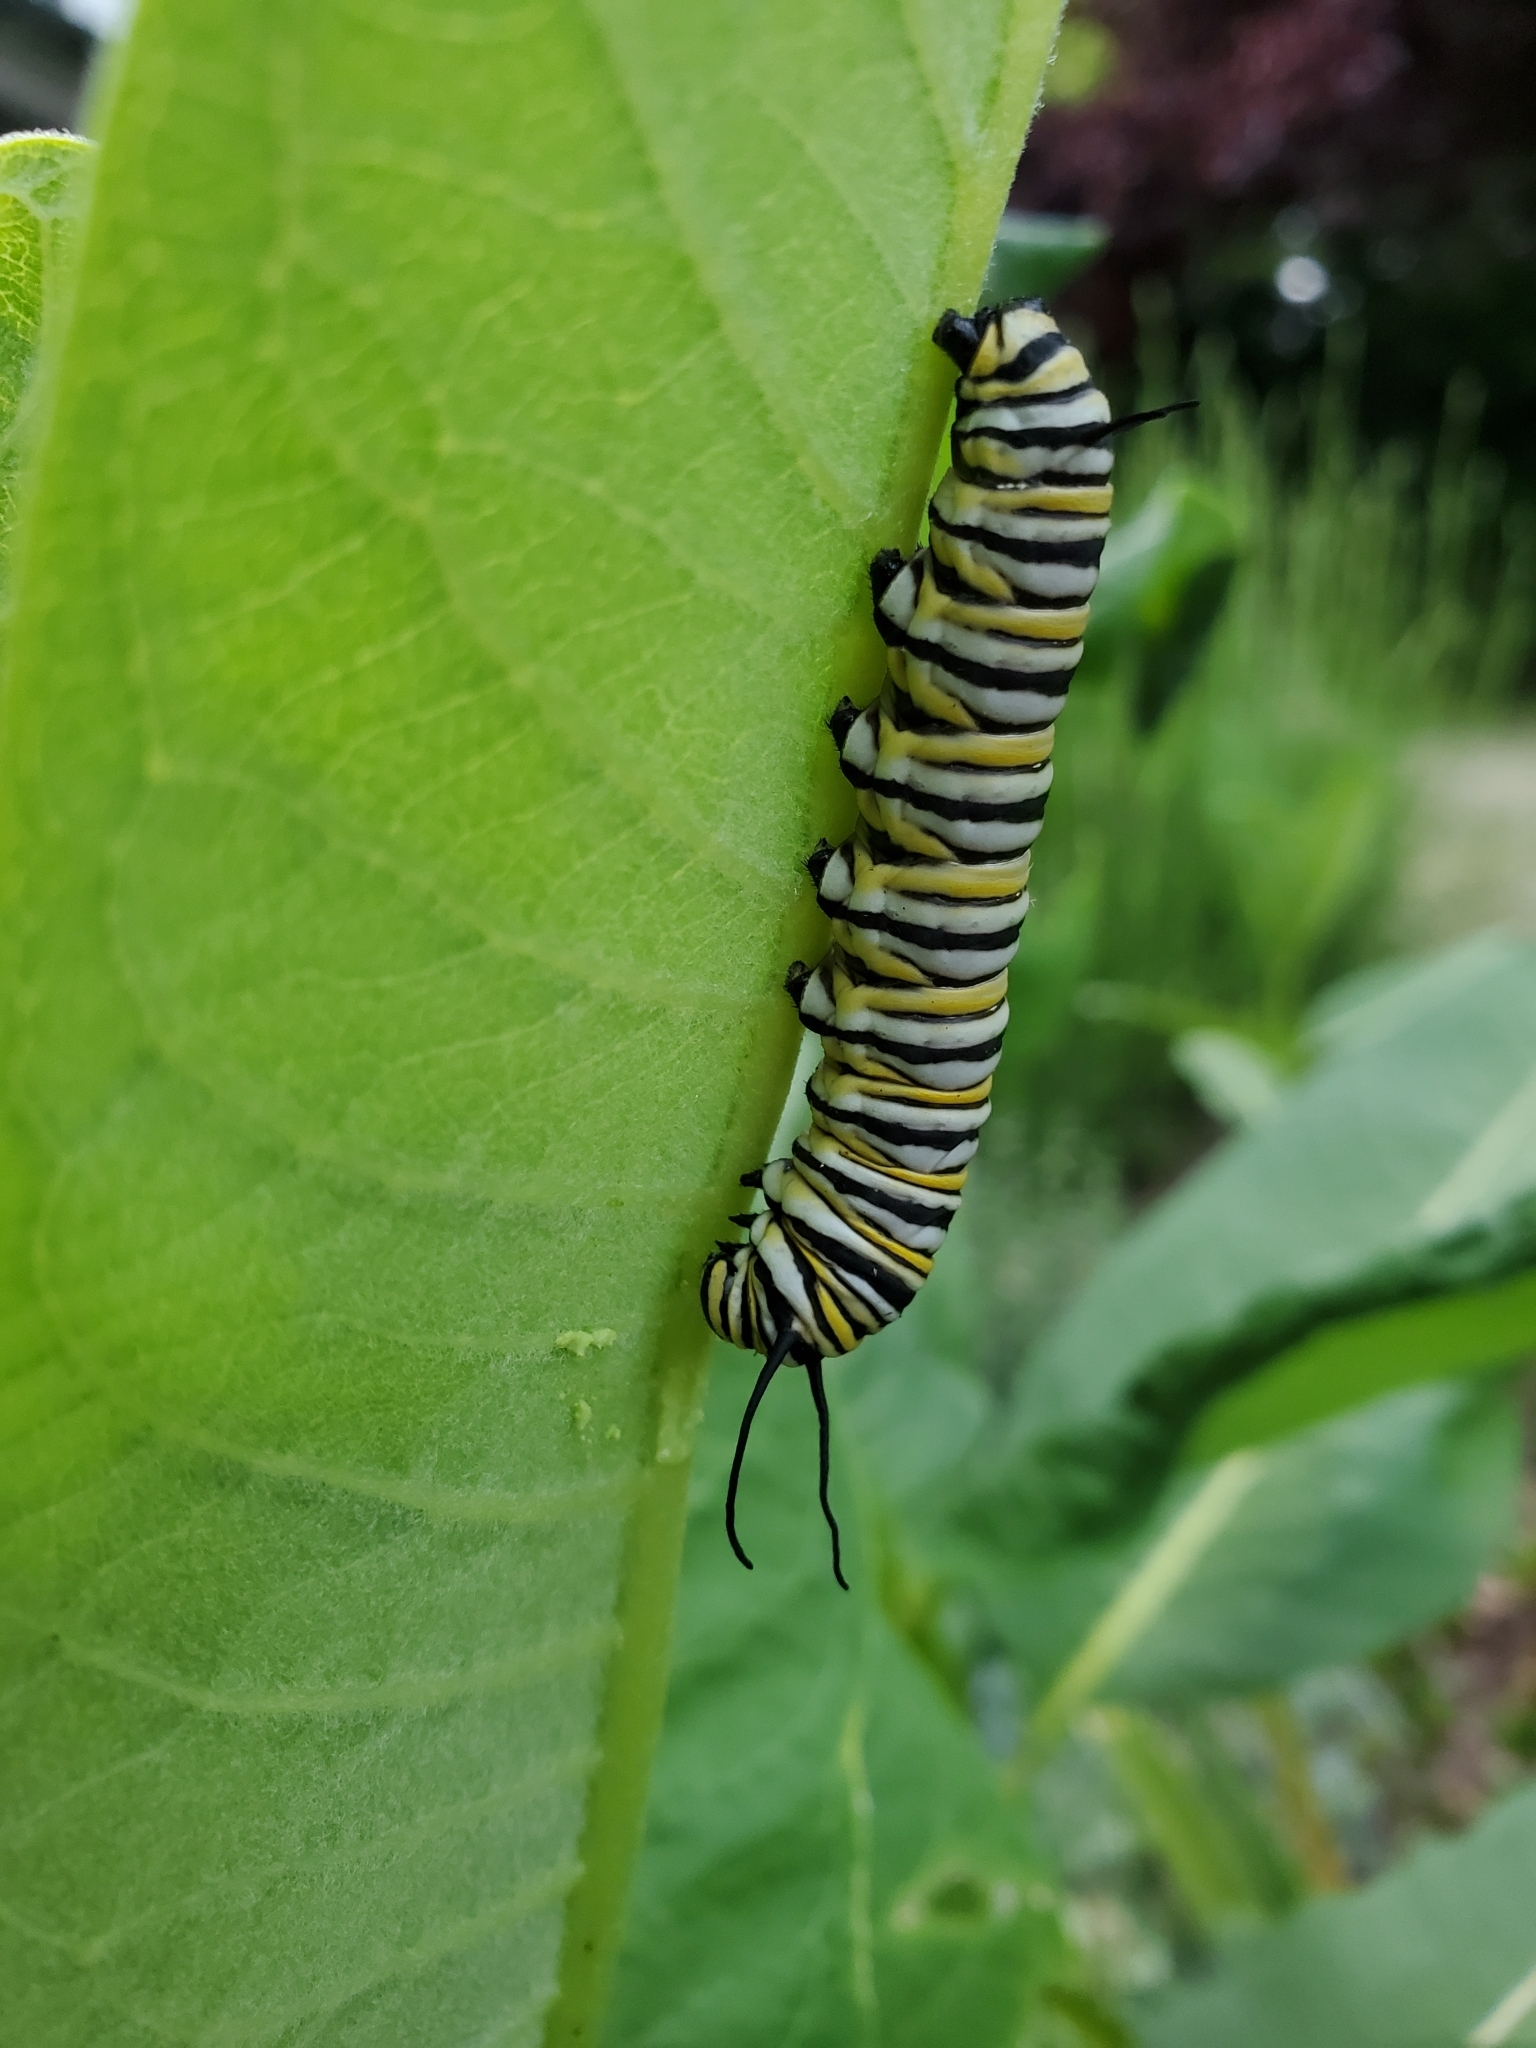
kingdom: Animalia
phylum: Arthropoda
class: Insecta
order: Lepidoptera
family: Nymphalidae
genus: Danaus
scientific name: Danaus plexippus
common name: Monarch
